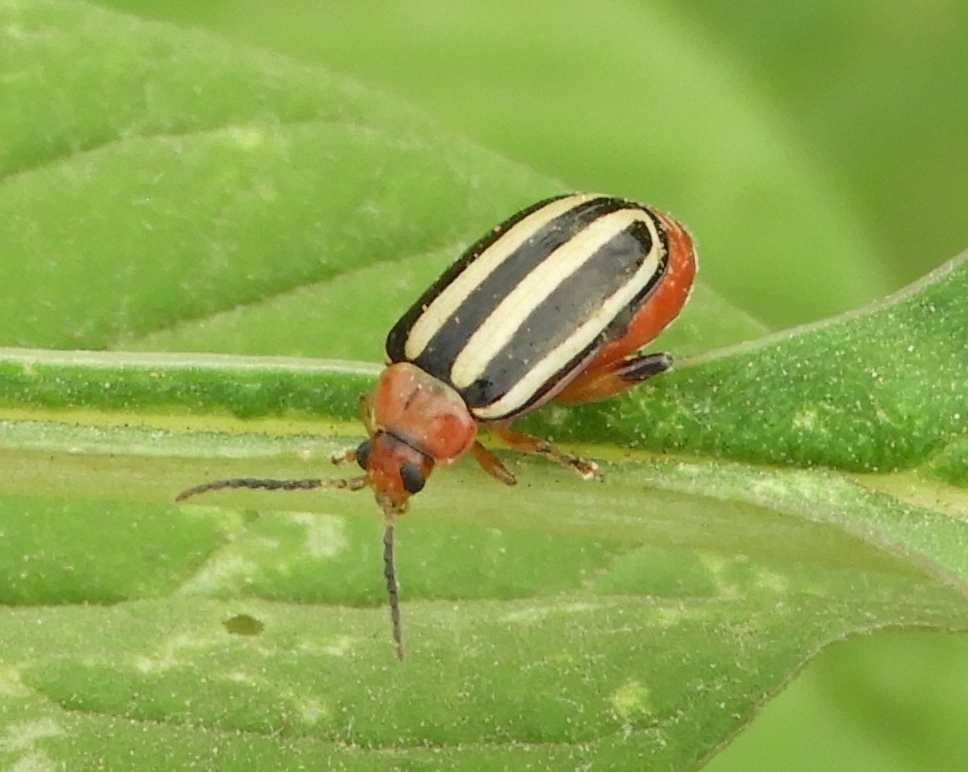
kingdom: Animalia
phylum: Arthropoda
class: Insecta
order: Coleoptera
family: Chrysomelidae
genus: Disonycha
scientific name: Disonycha glabrata
